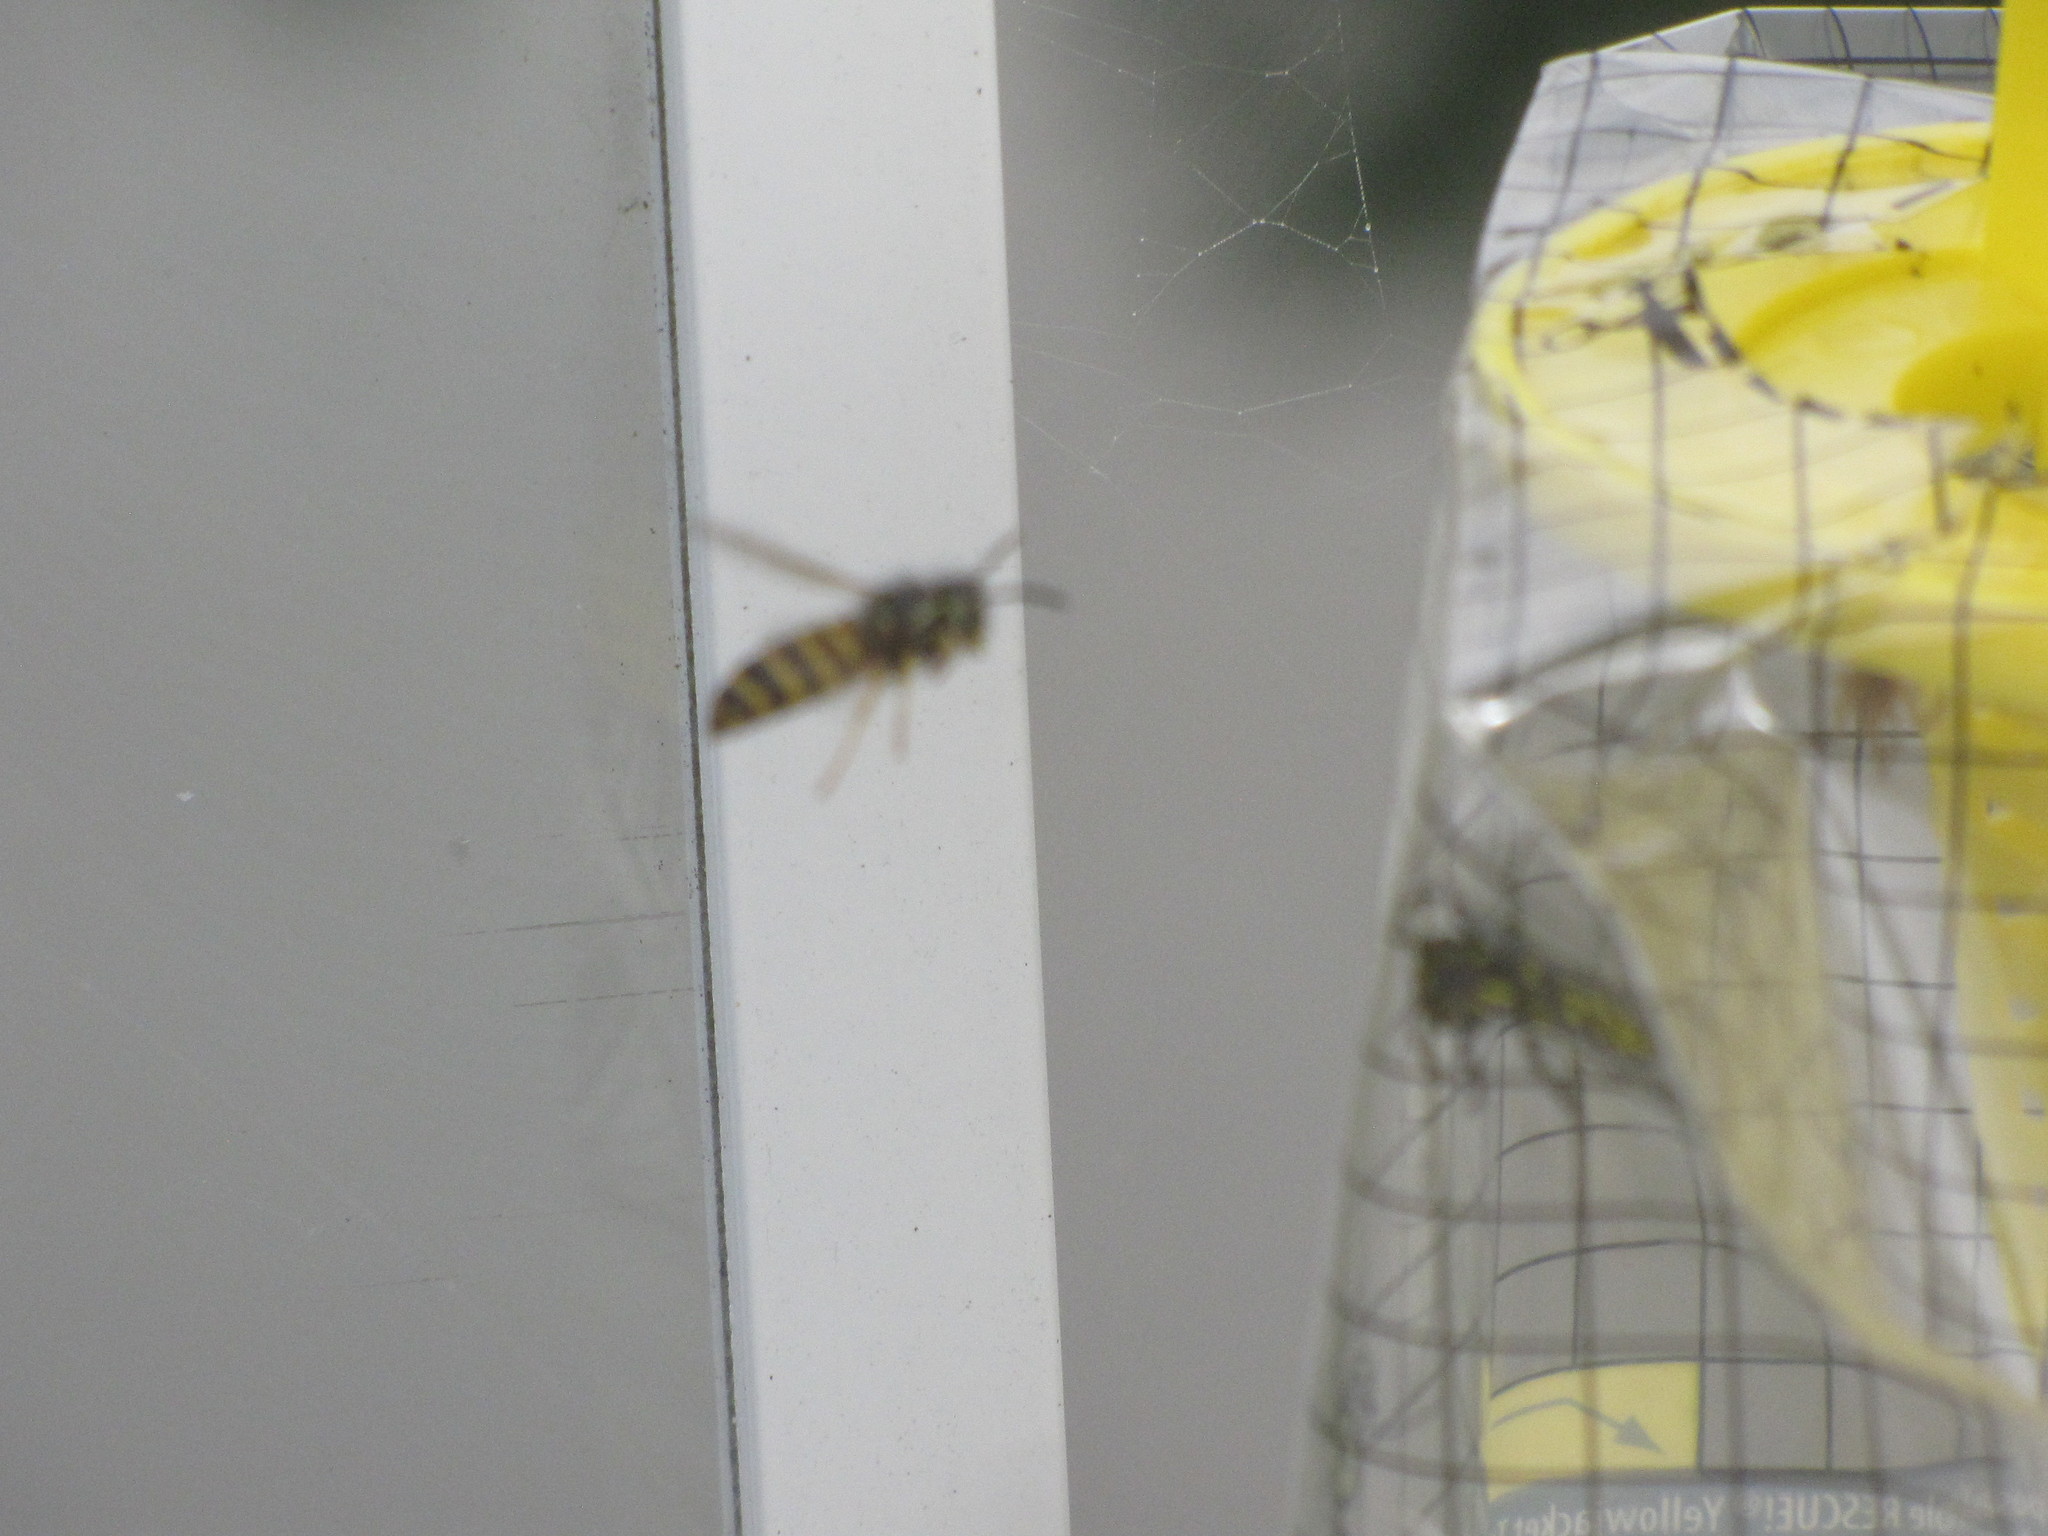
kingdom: Animalia
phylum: Arthropoda
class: Insecta
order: Hymenoptera
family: Vespidae
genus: Vespula
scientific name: Vespula
